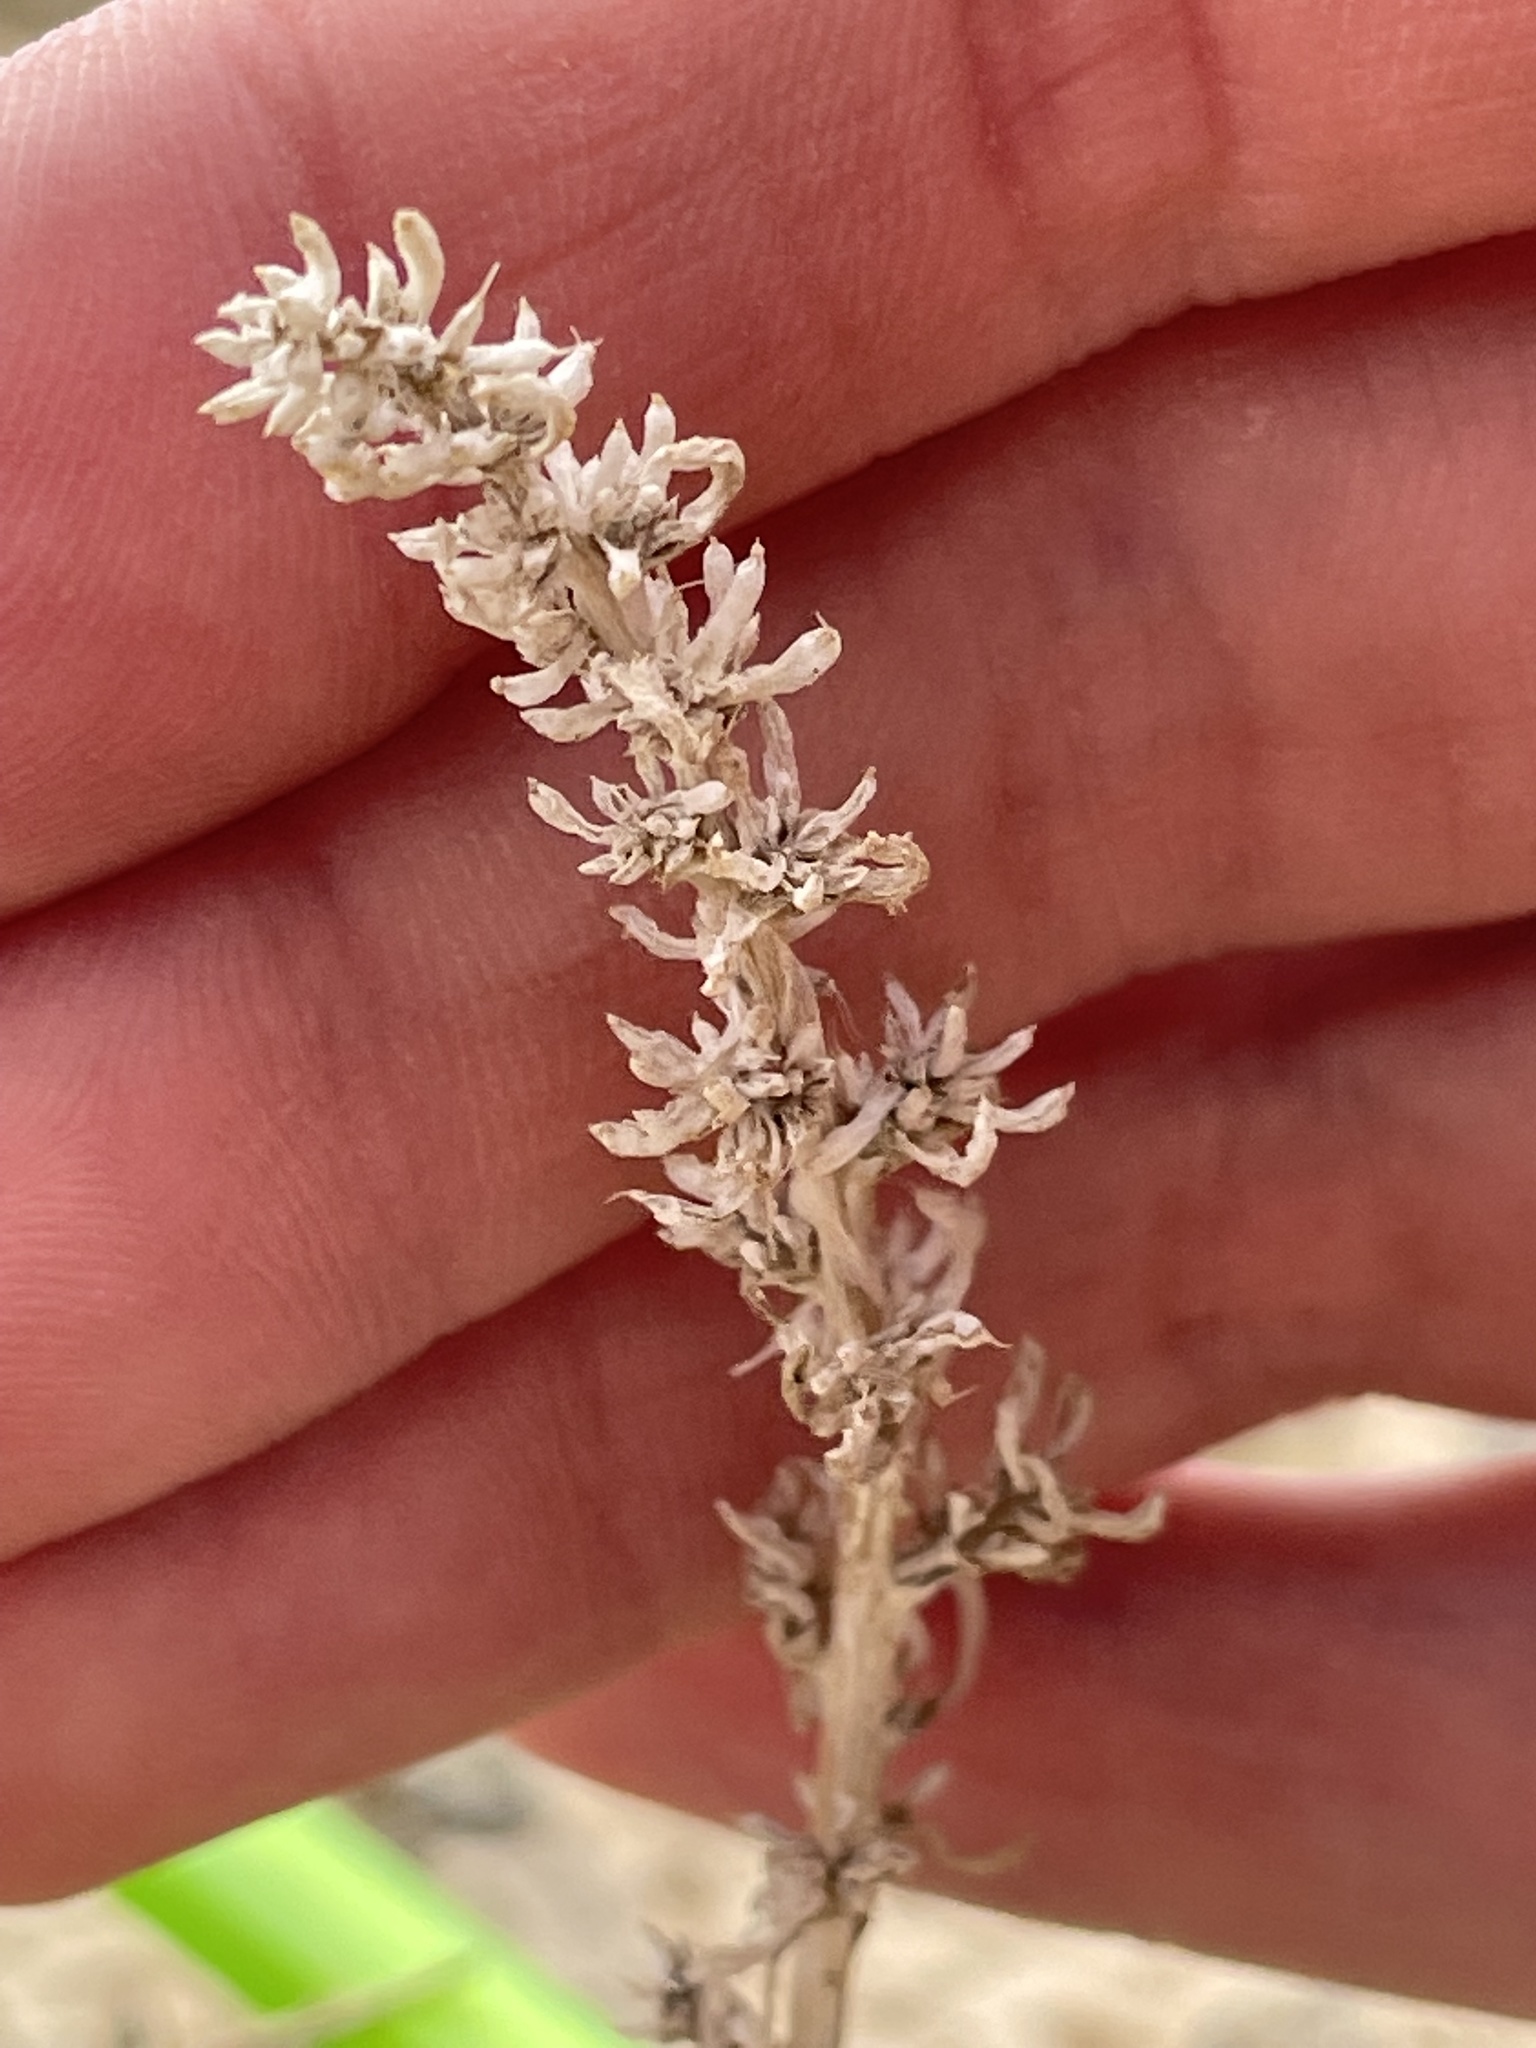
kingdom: Plantae
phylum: Tracheophyta
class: Magnoliopsida
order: Caryophyllales
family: Amaranthaceae
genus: Halogeton
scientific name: Halogeton glomeratus
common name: Saltlover
